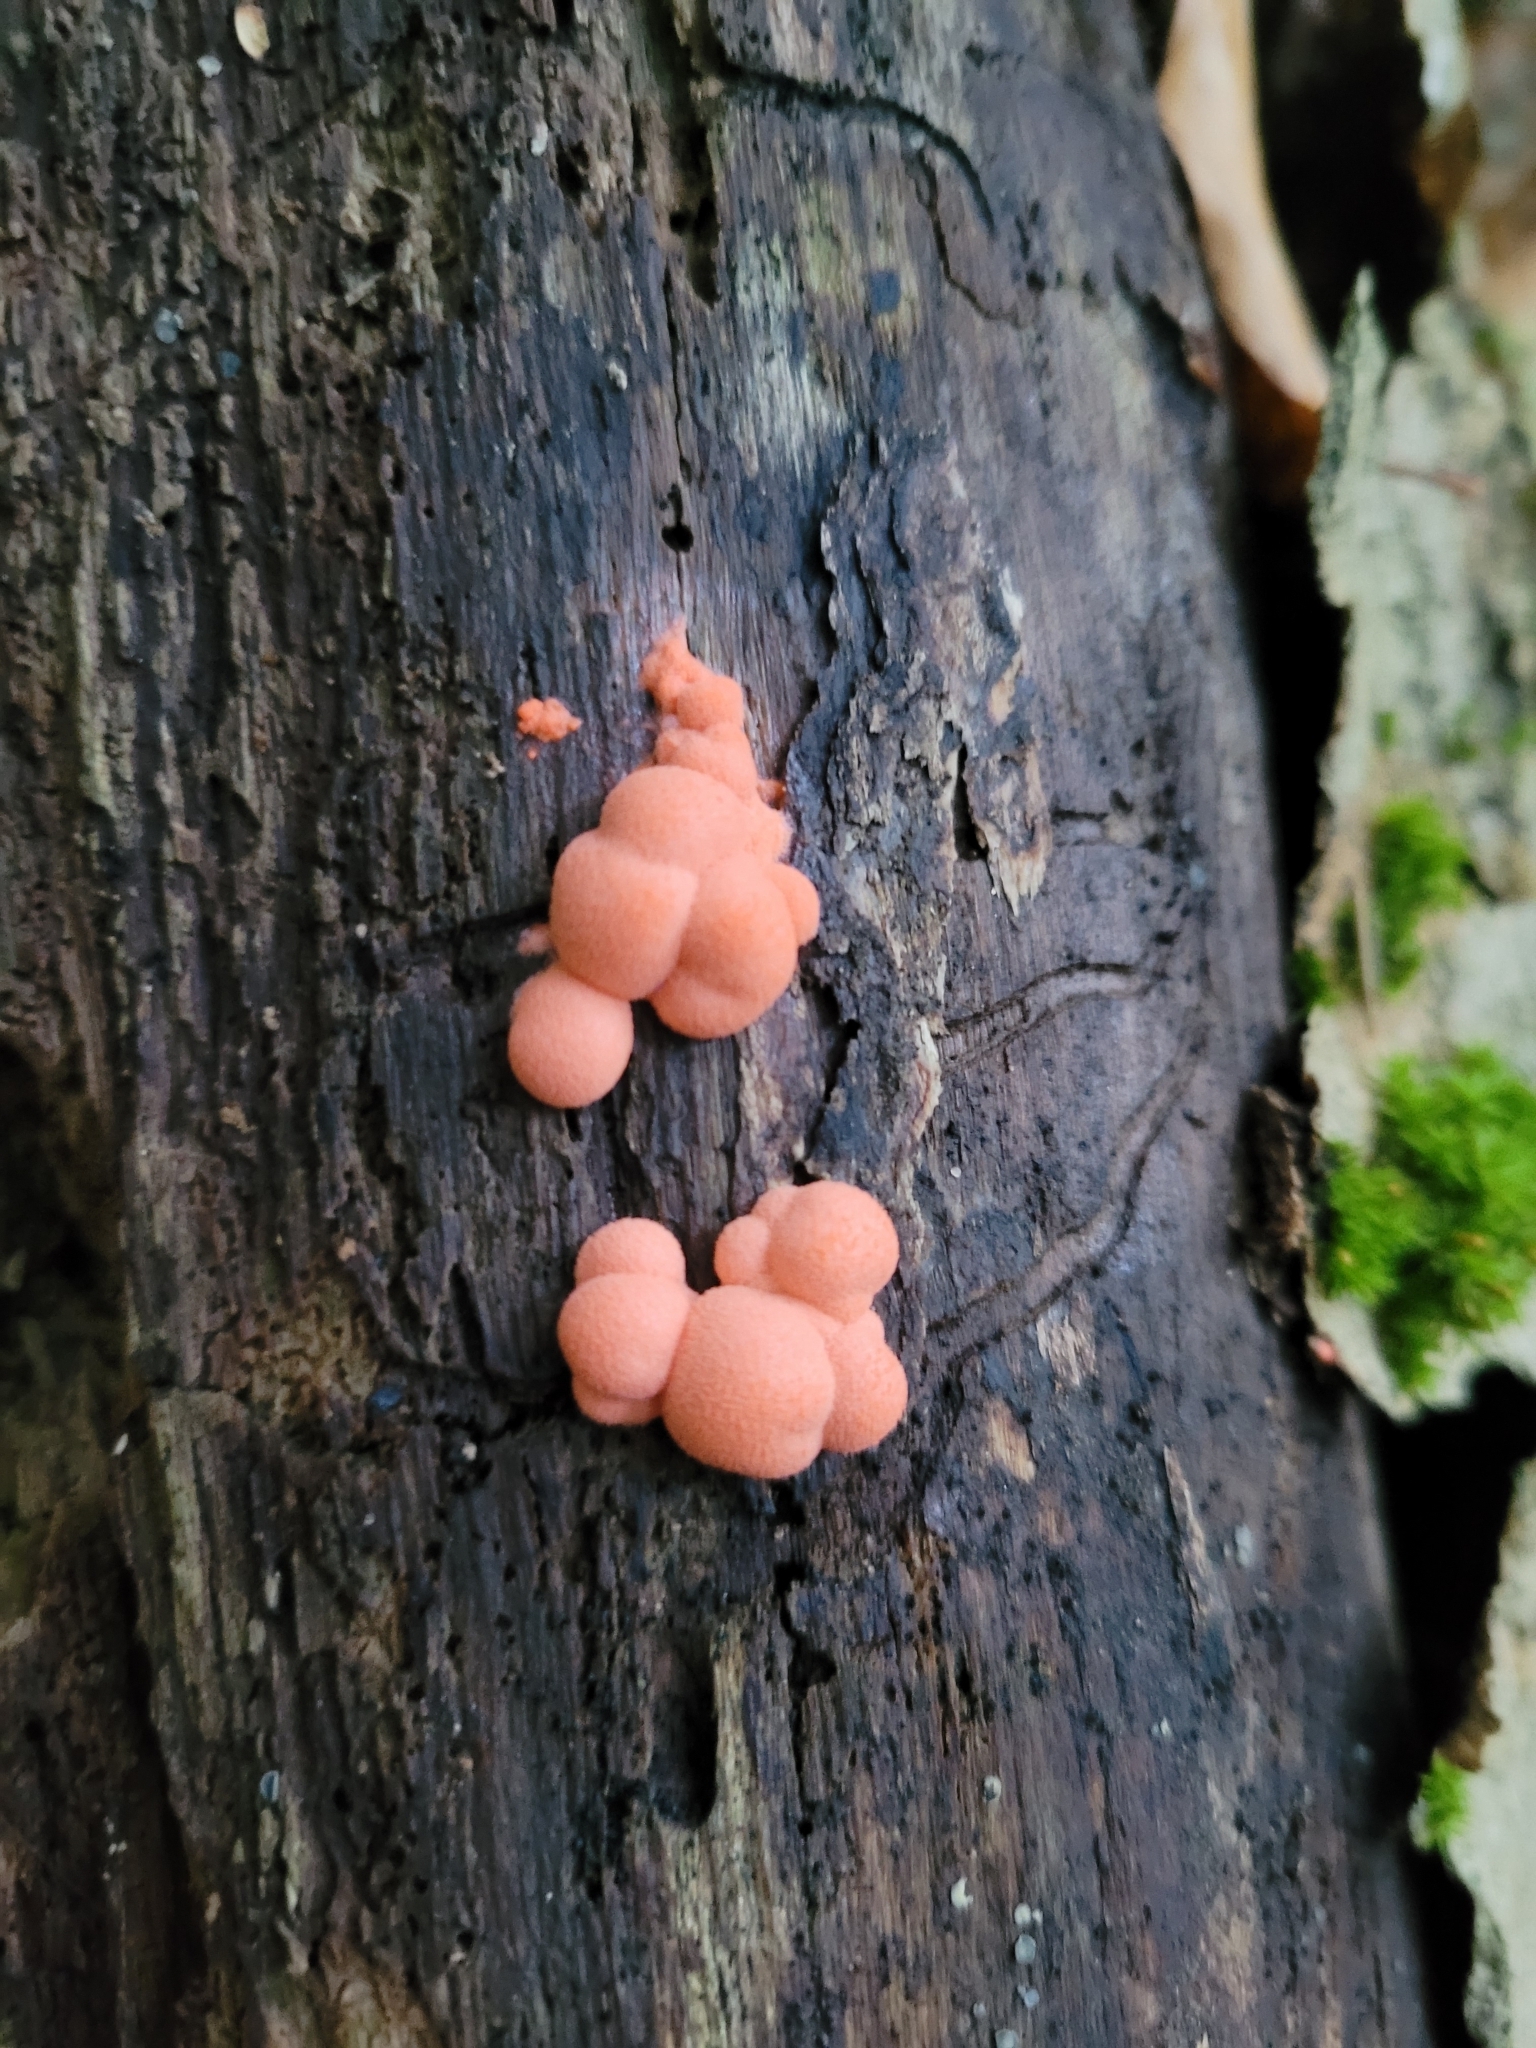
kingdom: Protozoa
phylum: Mycetozoa
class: Myxomycetes
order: Cribrariales
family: Tubiferaceae
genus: Lycogala
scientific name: Lycogala epidendrum
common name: Wolf's milk
